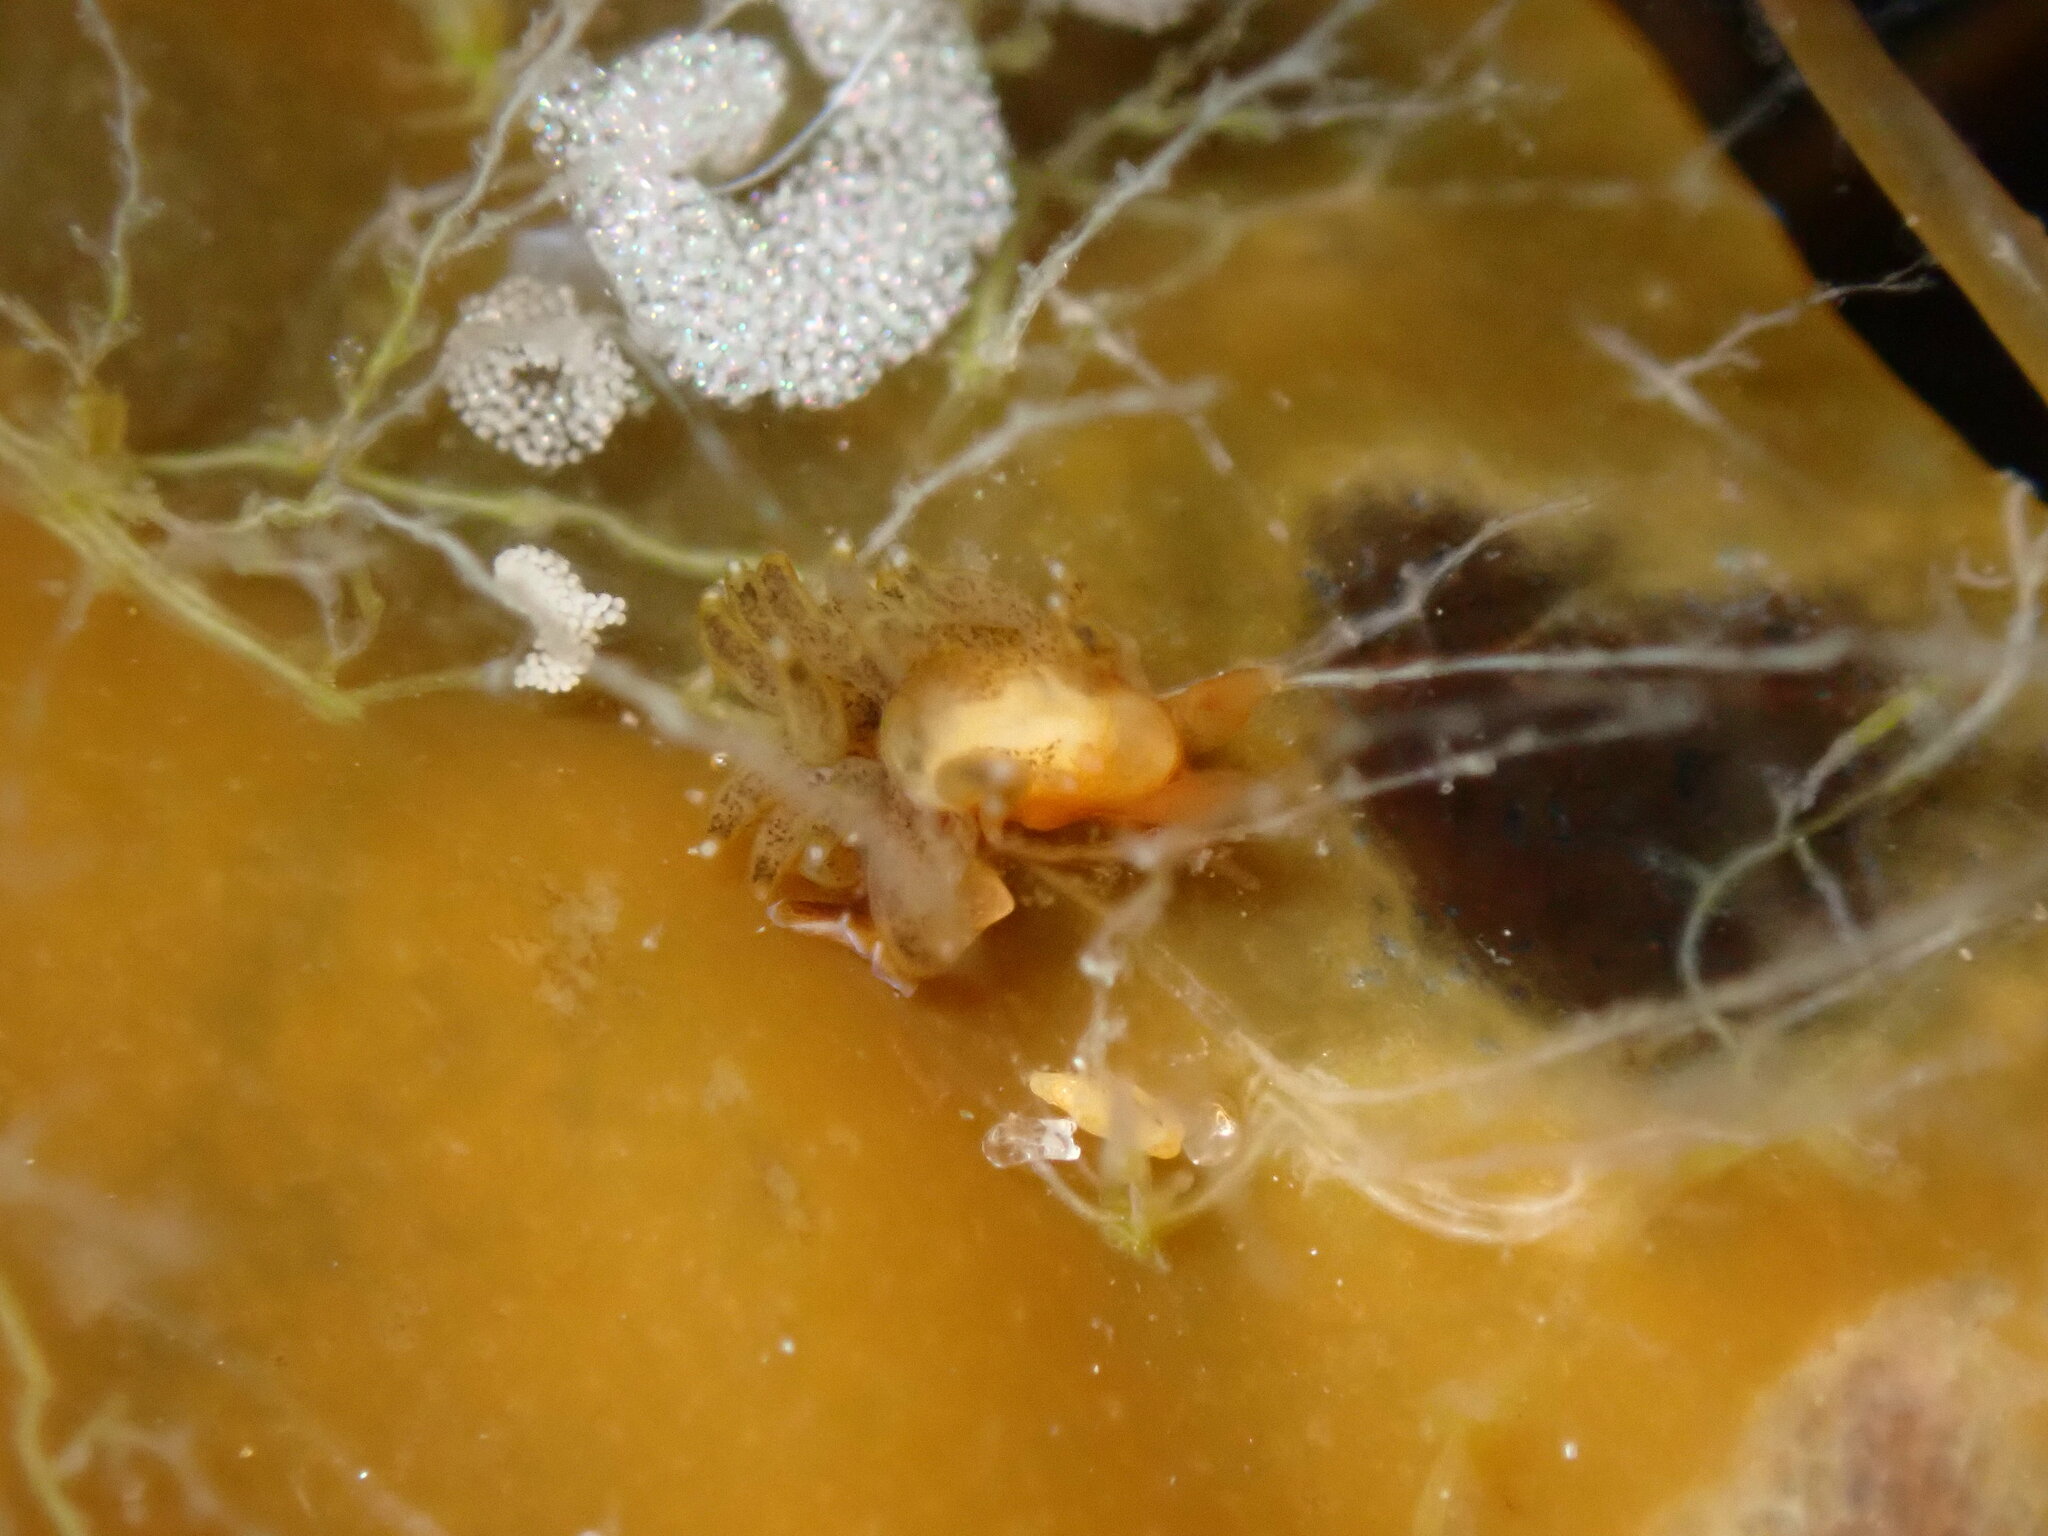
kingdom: Animalia
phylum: Mollusca
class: Gastropoda
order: Nudibranchia
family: Cuthonidae
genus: Cuthona
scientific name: Cuthona phoenix
